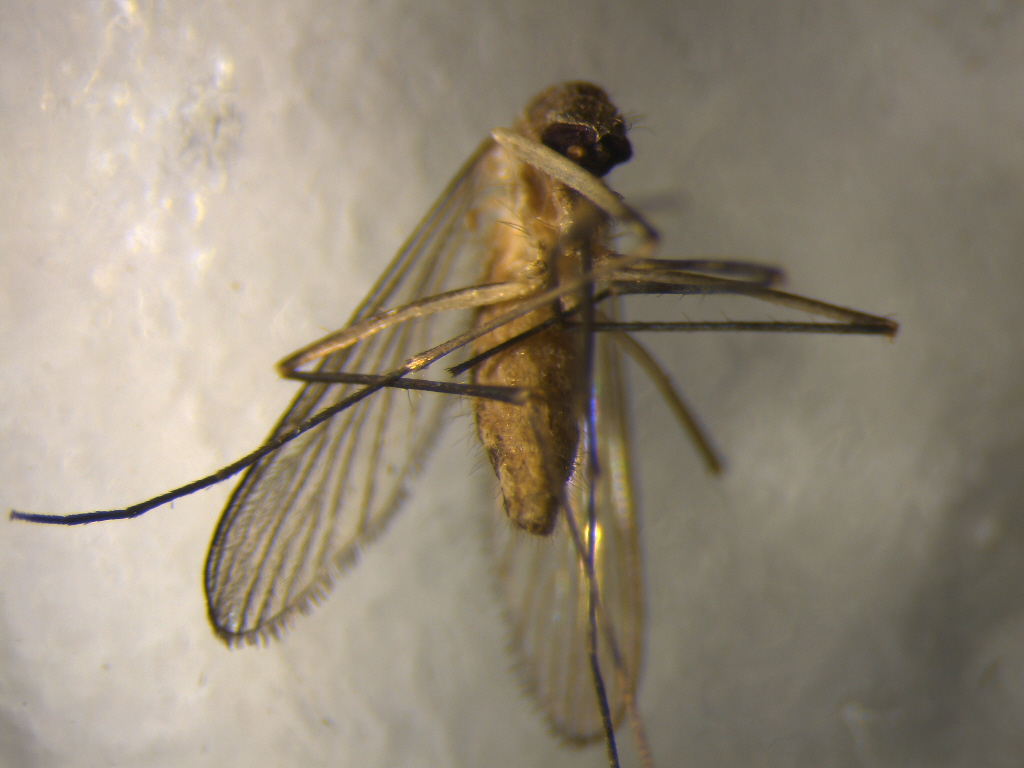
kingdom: Animalia
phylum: Arthropoda
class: Insecta
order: Diptera
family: Culicidae
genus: Culex
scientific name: Culex quinquefasciatus
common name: Southern house mosquito
